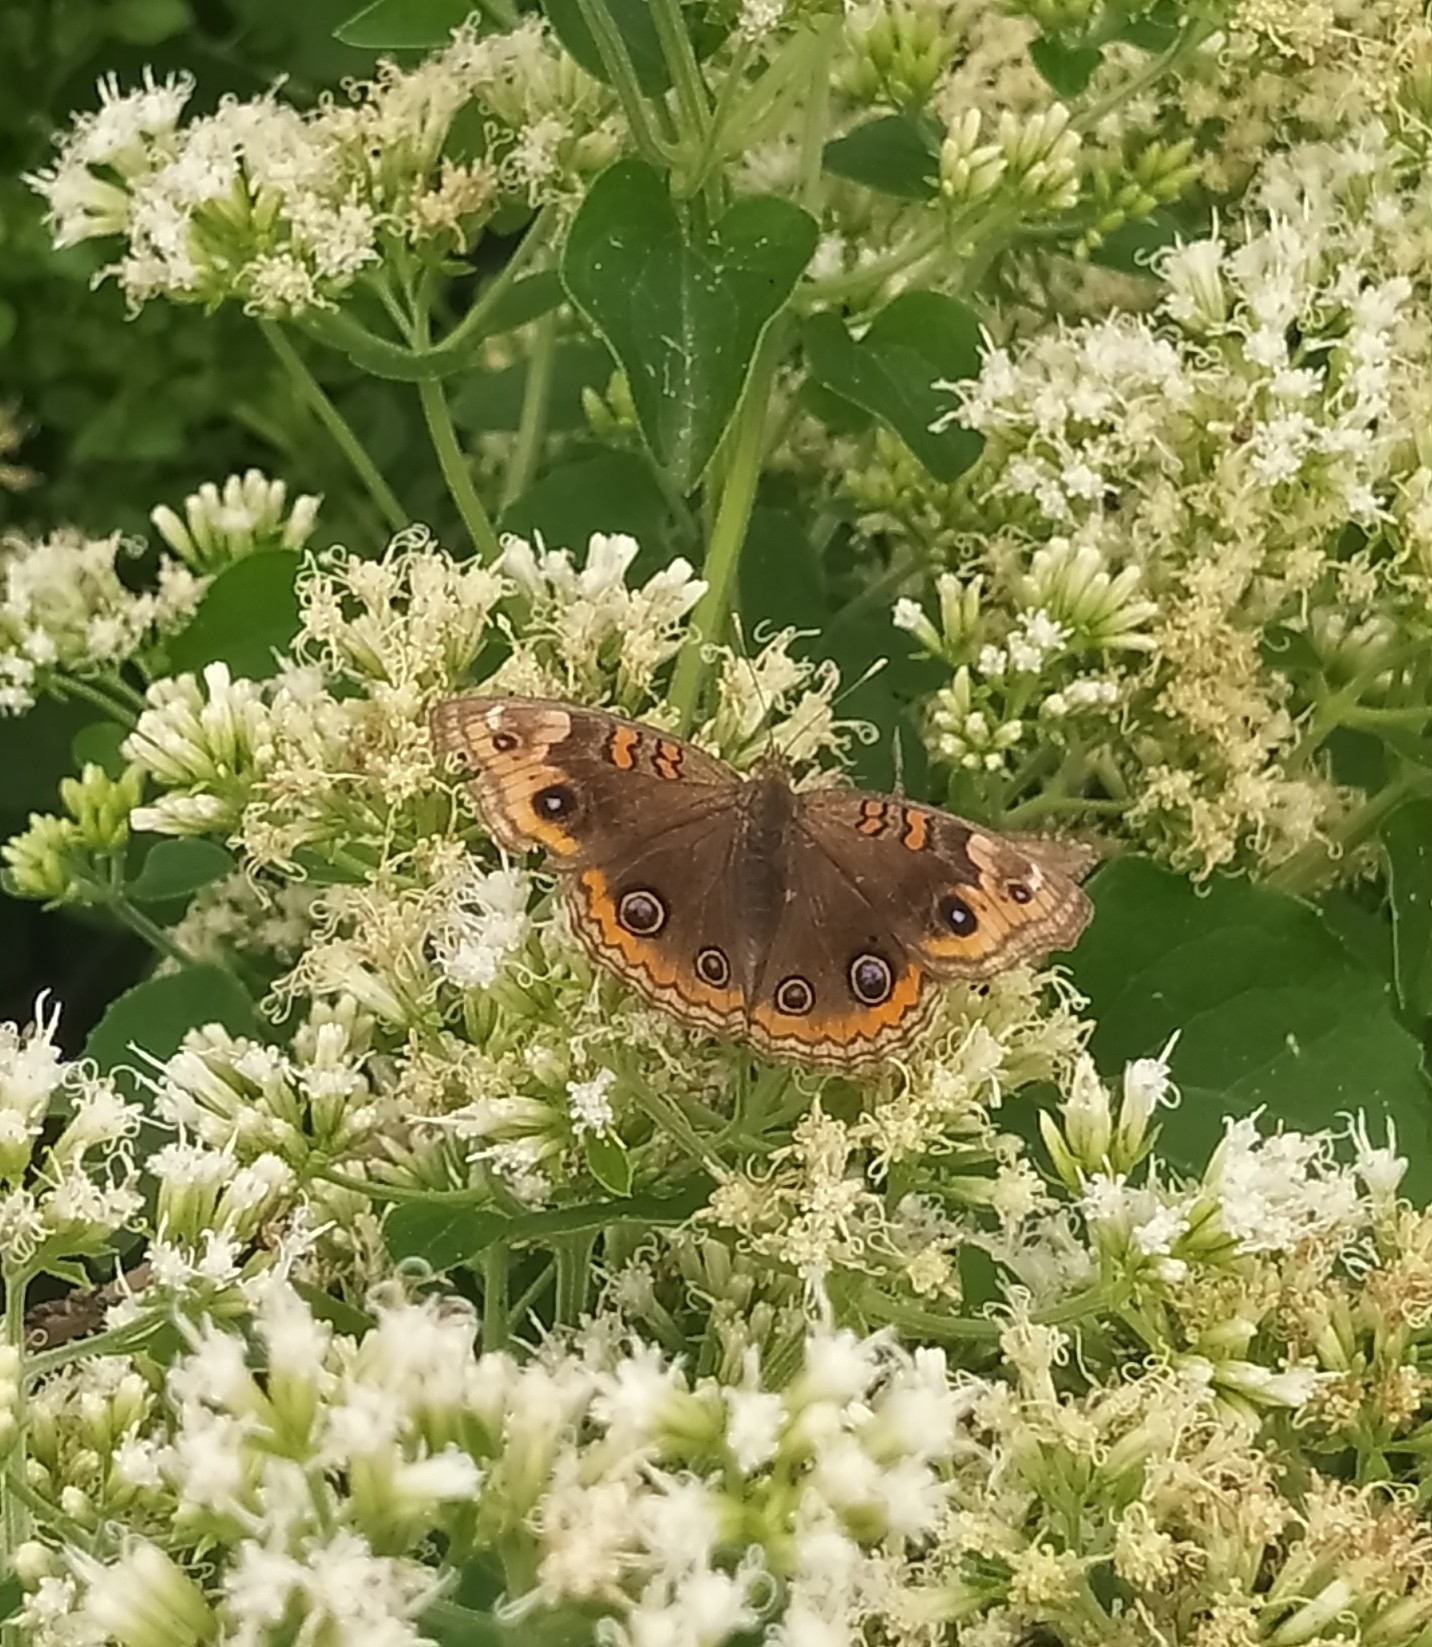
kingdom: Animalia
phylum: Arthropoda
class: Insecta
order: Lepidoptera
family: Nymphalidae
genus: Junonia
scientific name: Junonia lavinia
